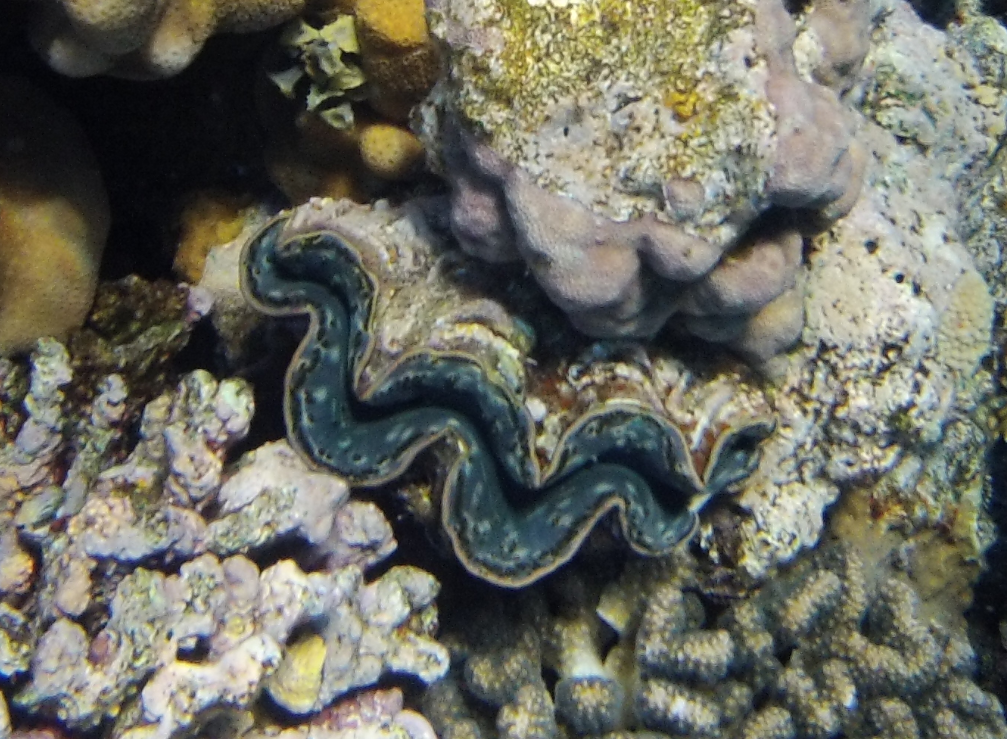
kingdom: Animalia
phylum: Mollusca
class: Bivalvia
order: Cardiida
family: Cardiidae
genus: Tridacna
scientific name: Tridacna maxima
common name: Small giant clam
